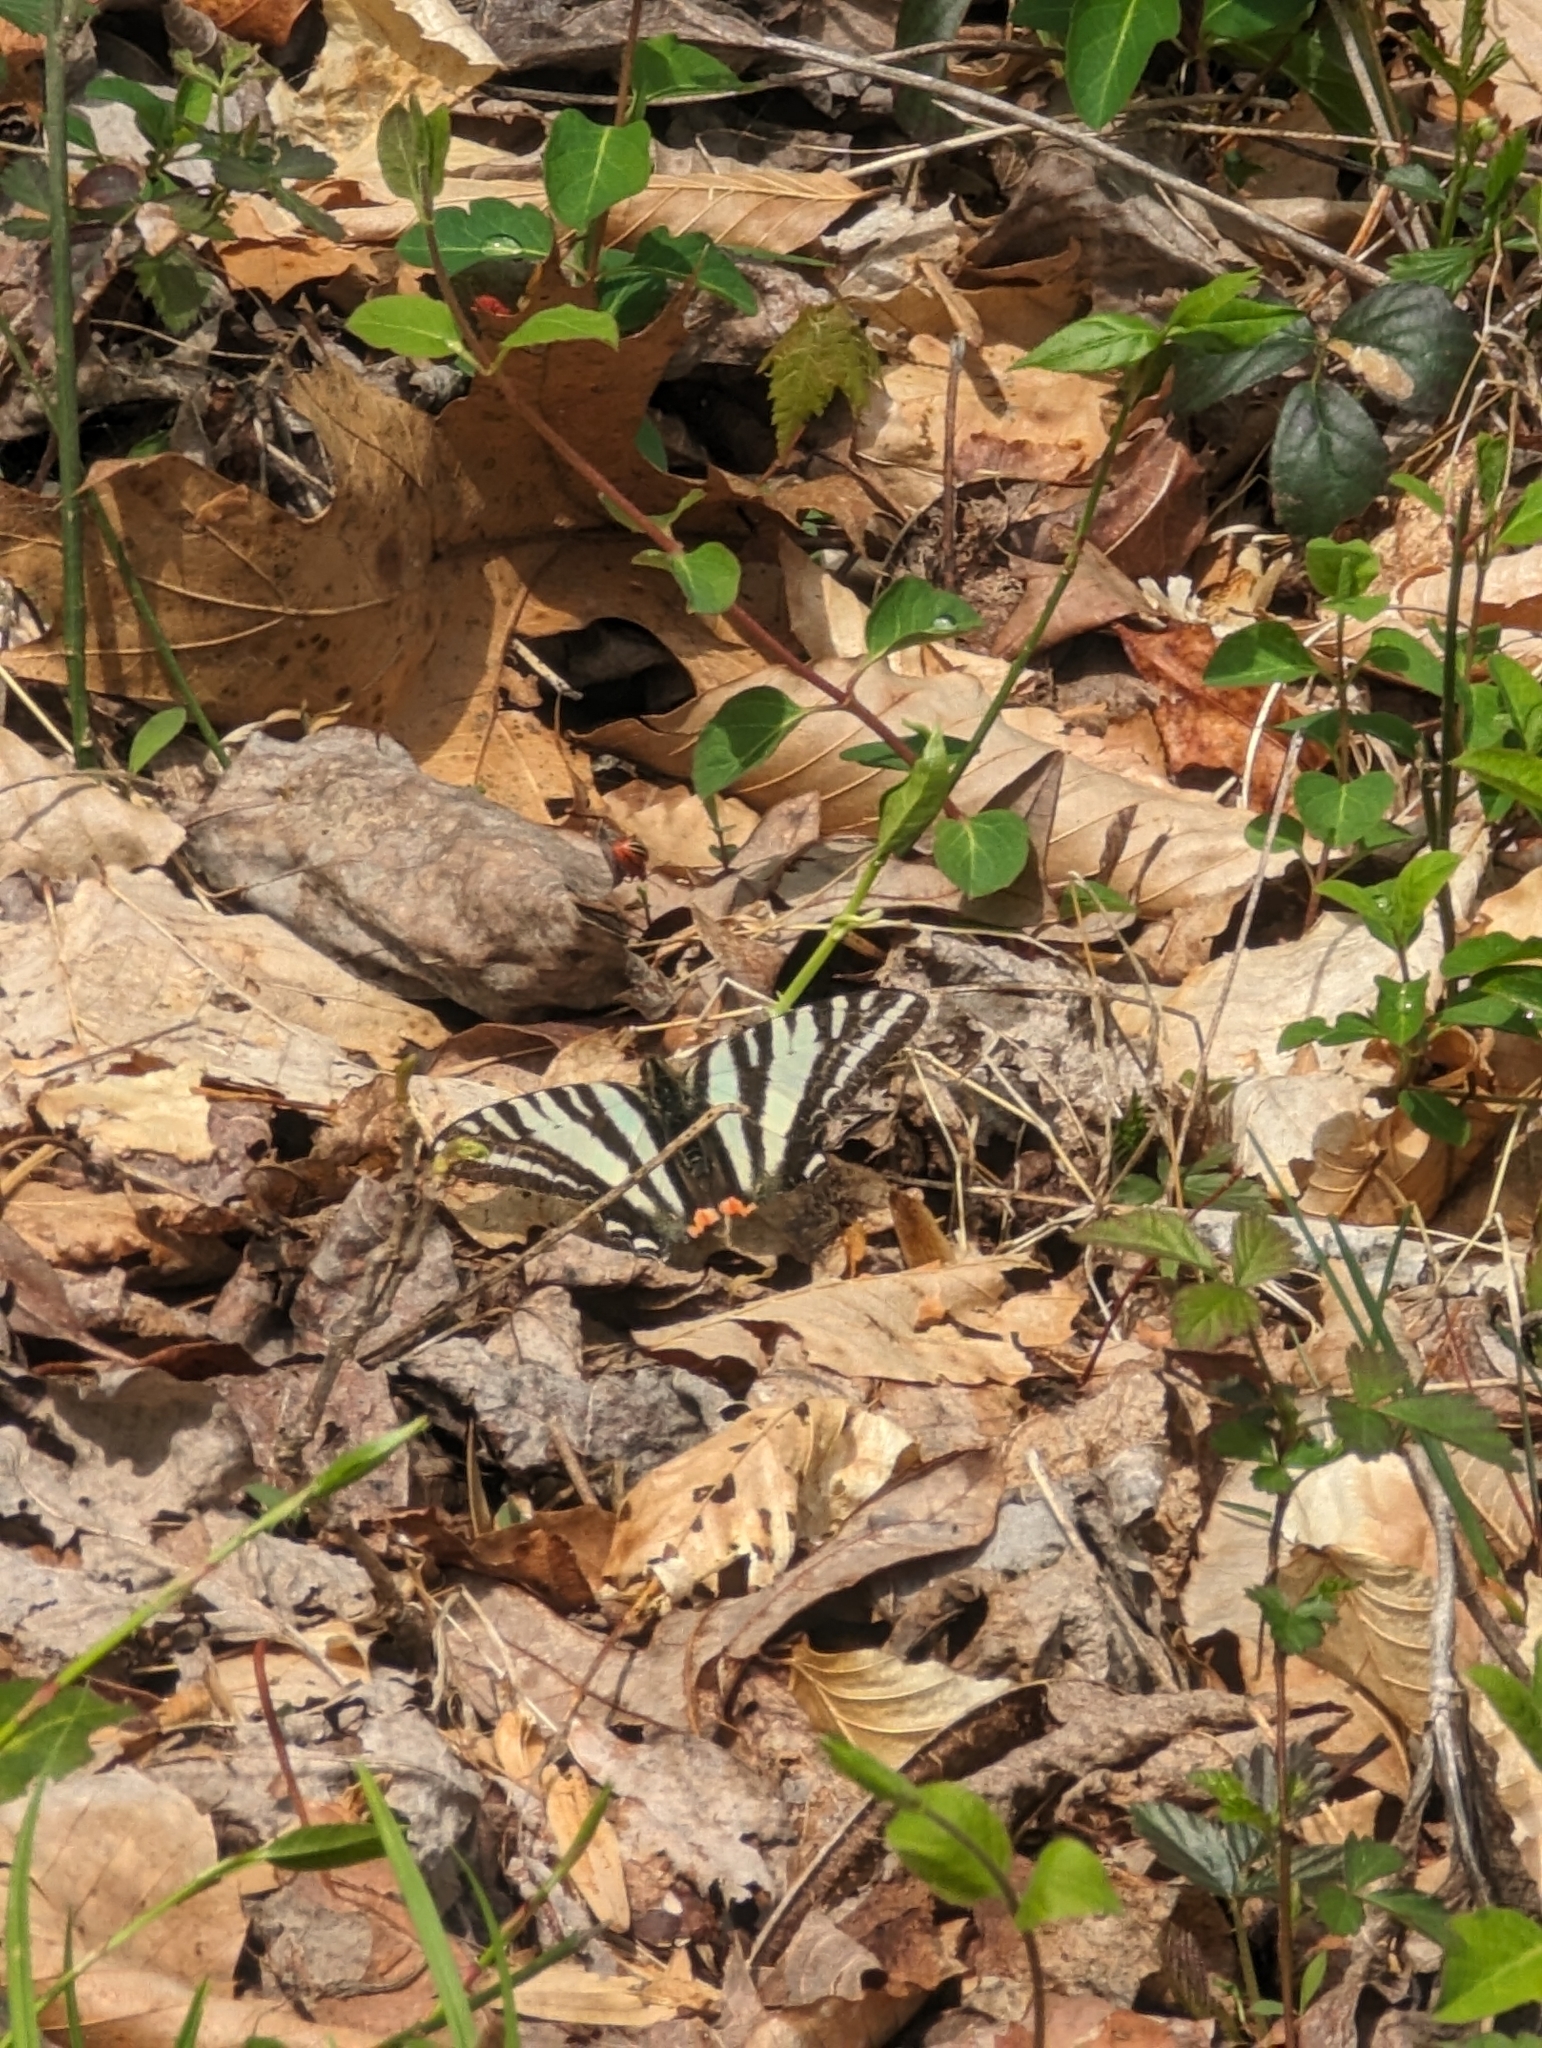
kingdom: Animalia
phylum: Arthropoda
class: Insecta
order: Lepidoptera
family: Papilionidae
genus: Protographium
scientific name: Protographium marcellus
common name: Zebra swallowtail
